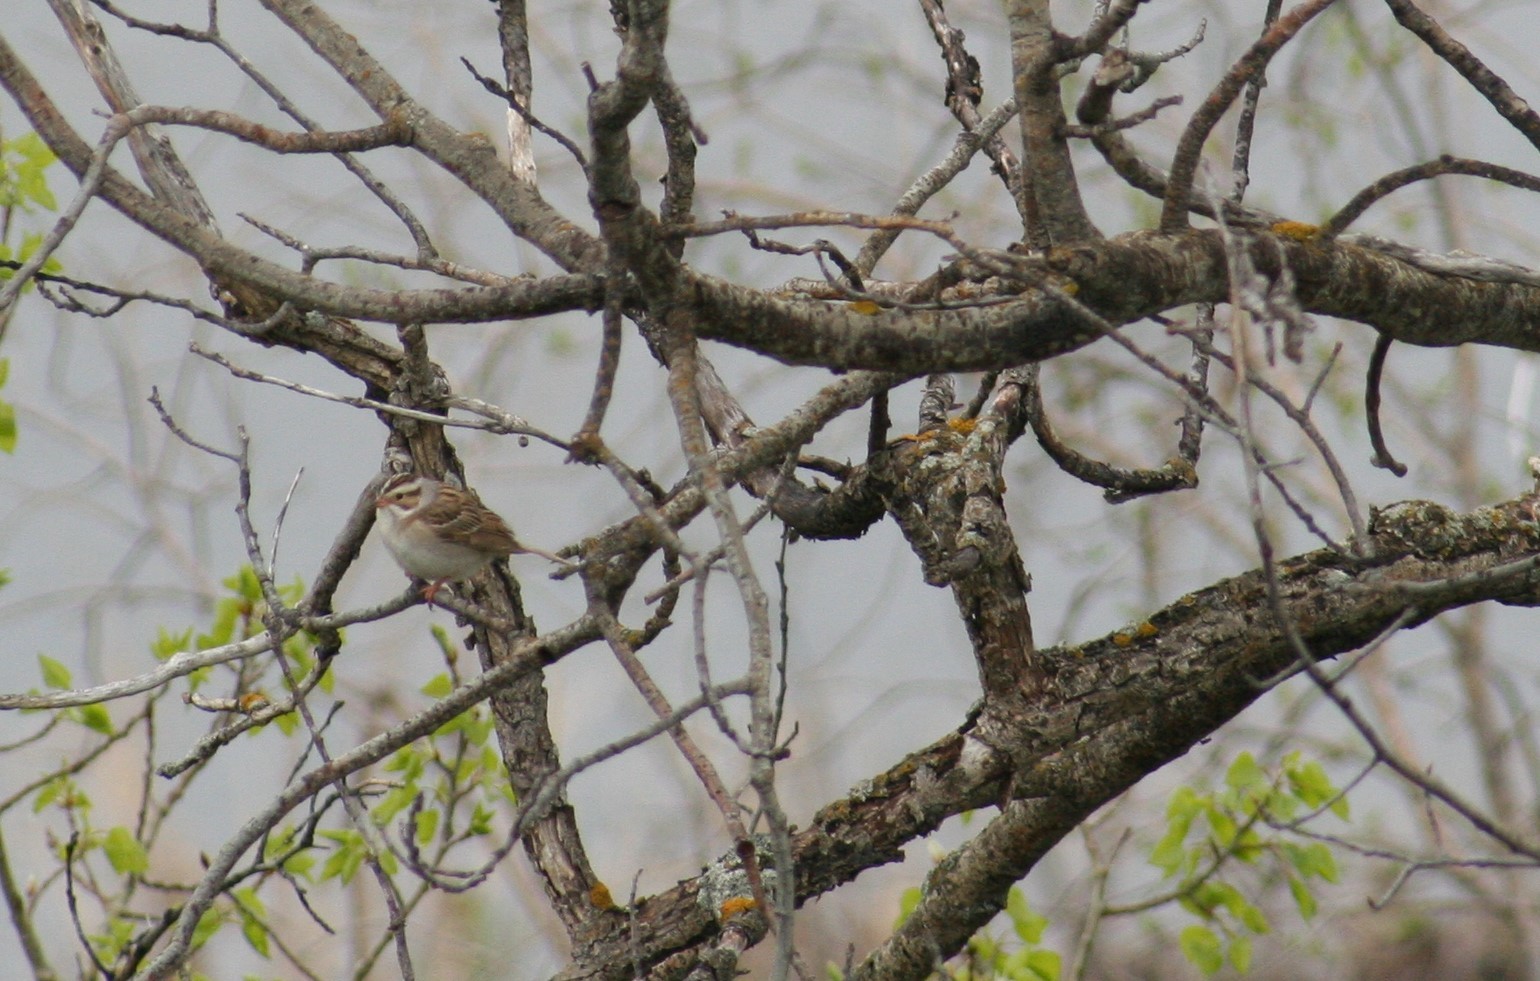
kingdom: Animalia
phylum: Chordata
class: Aves
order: Passeriformes
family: Passerellidae
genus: Spizella
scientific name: Spizella pallida
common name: Clay-colored sparrow
